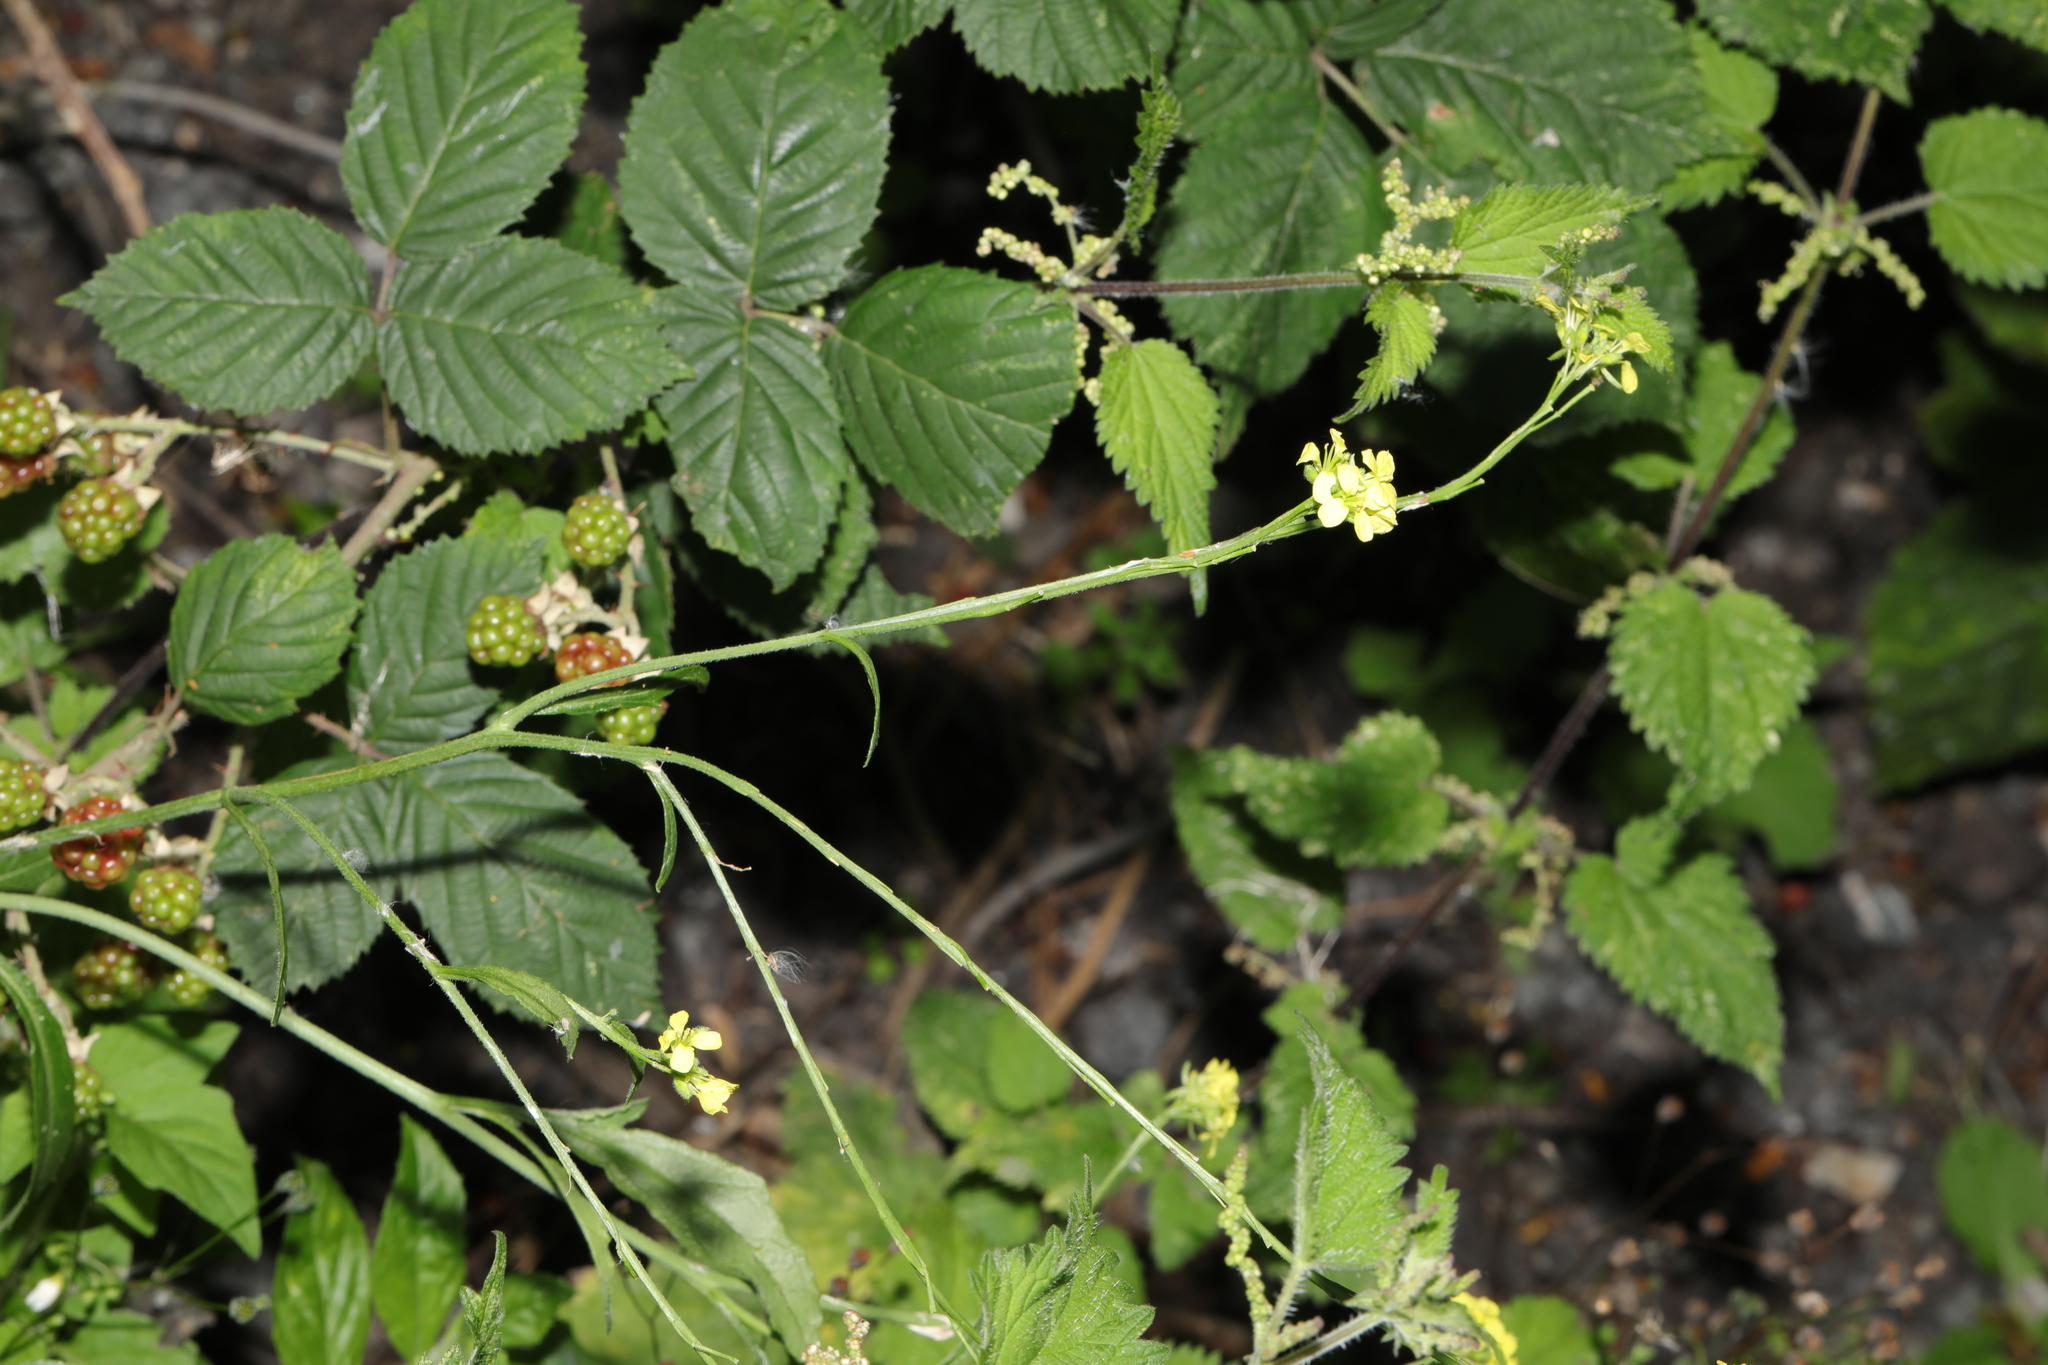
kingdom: Plantae
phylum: Tracheophyta
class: Magnoliopsida
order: Brassicales
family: Brassicaceae
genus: Sisymbrium
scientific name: Sisymbrium officinale
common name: Hedge mustard
